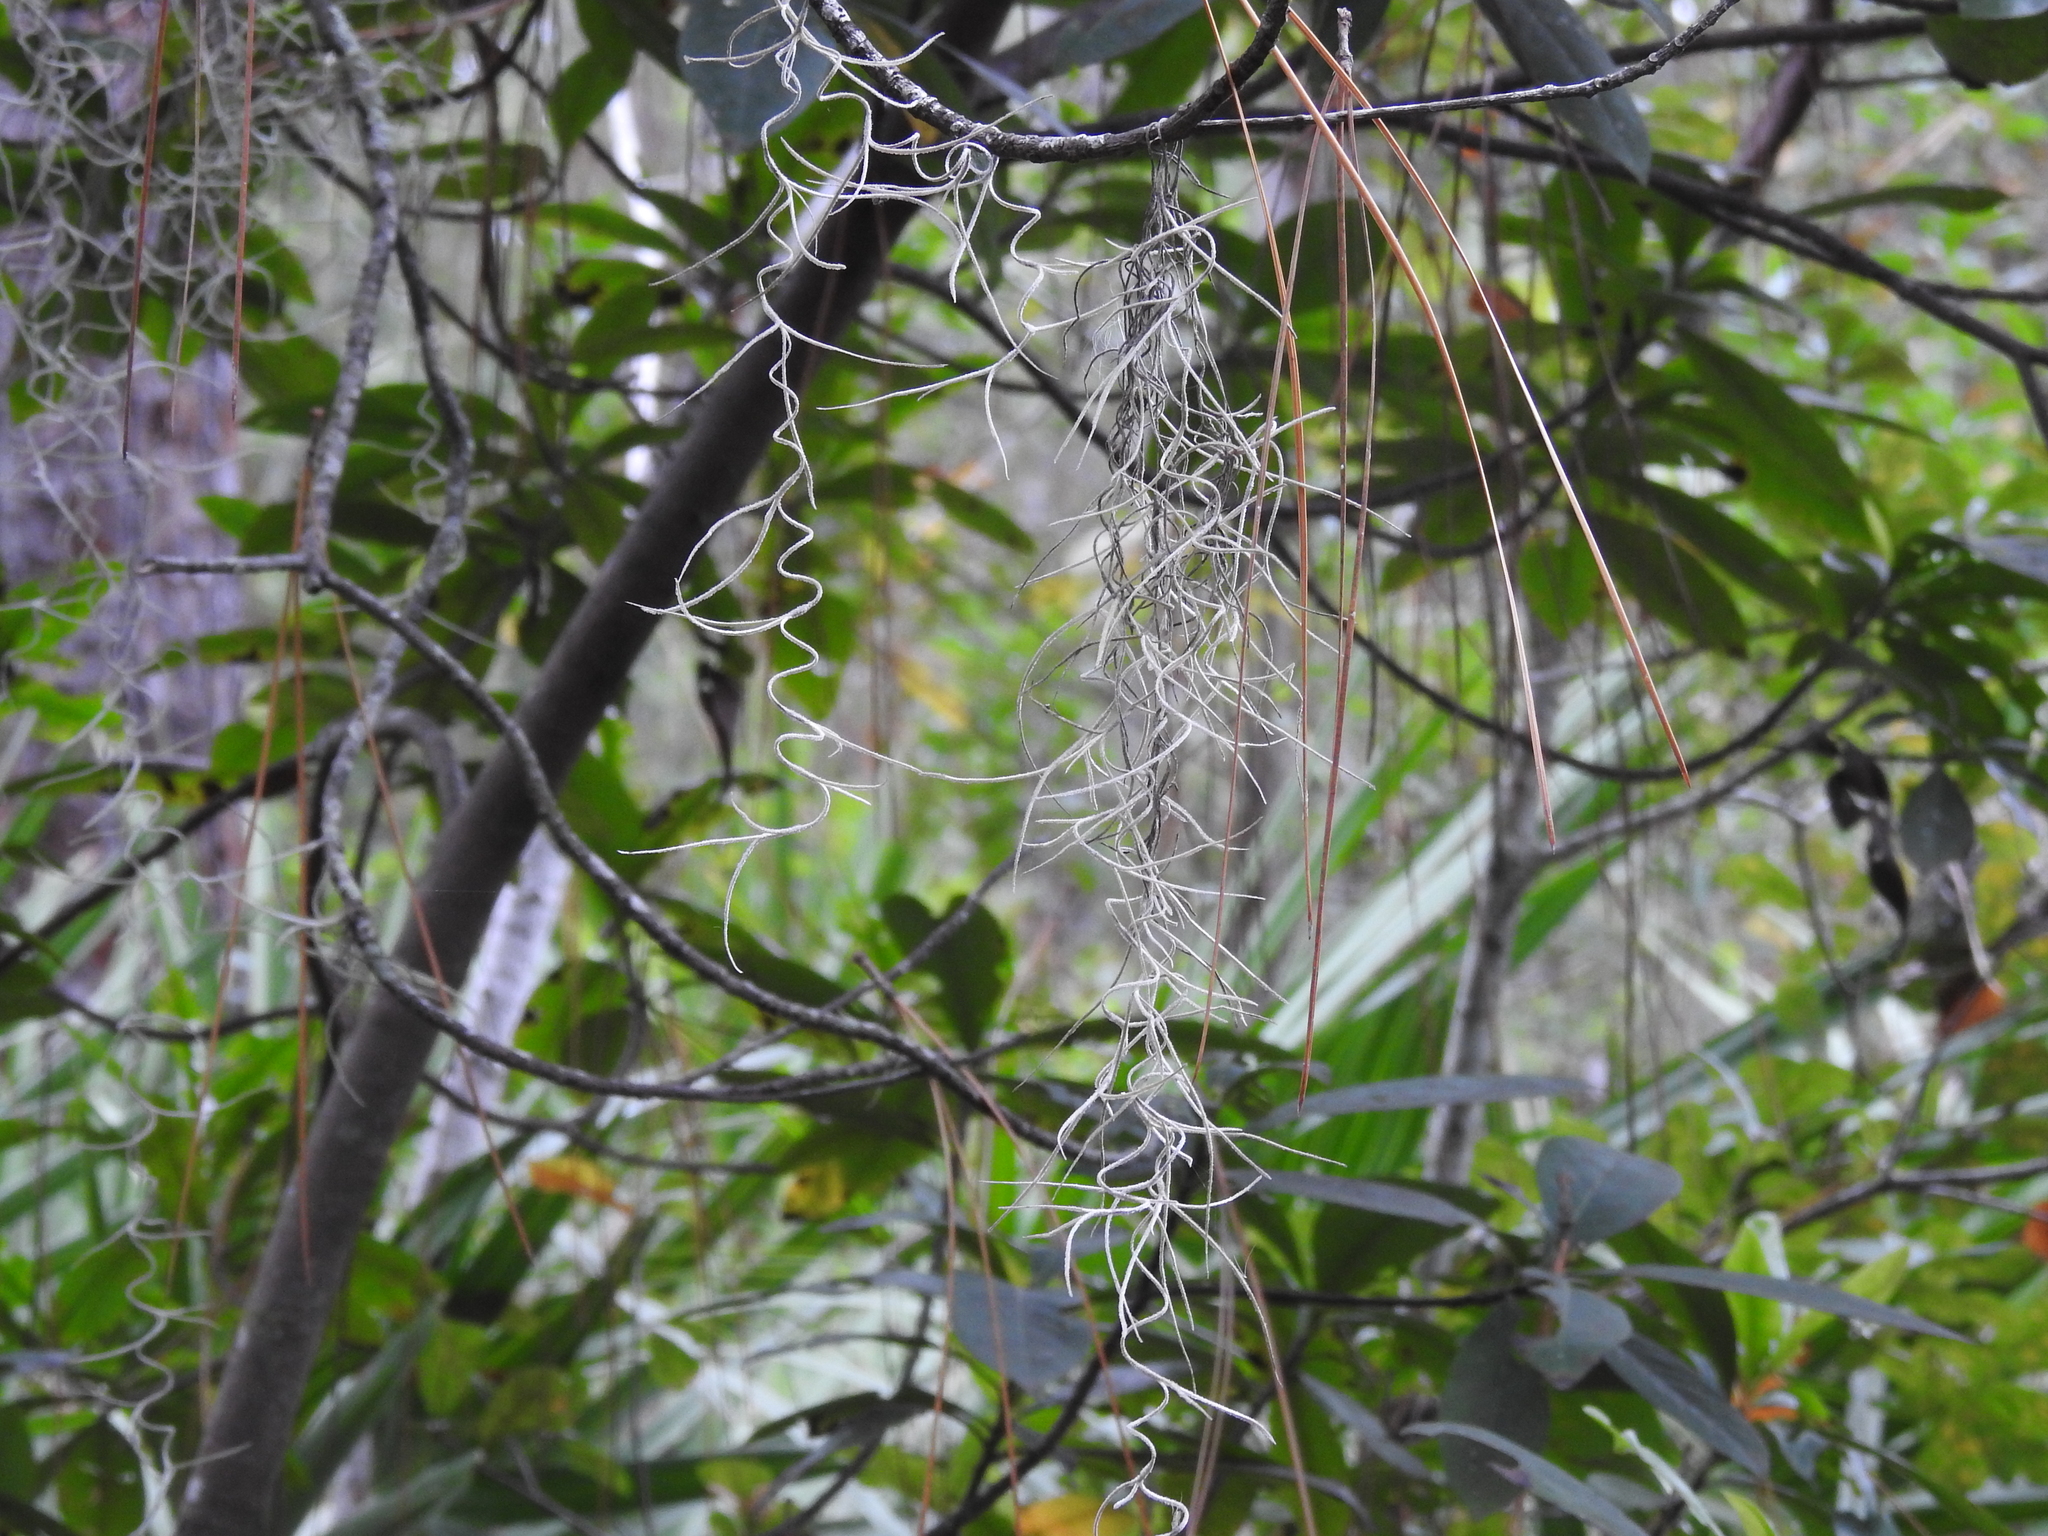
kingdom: Plantae
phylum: Tracheophyta
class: Liliopsida
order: Poales
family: Bromeliaceae
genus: Tillandsia
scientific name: Tillandsia usneoides
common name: Spanish moss
